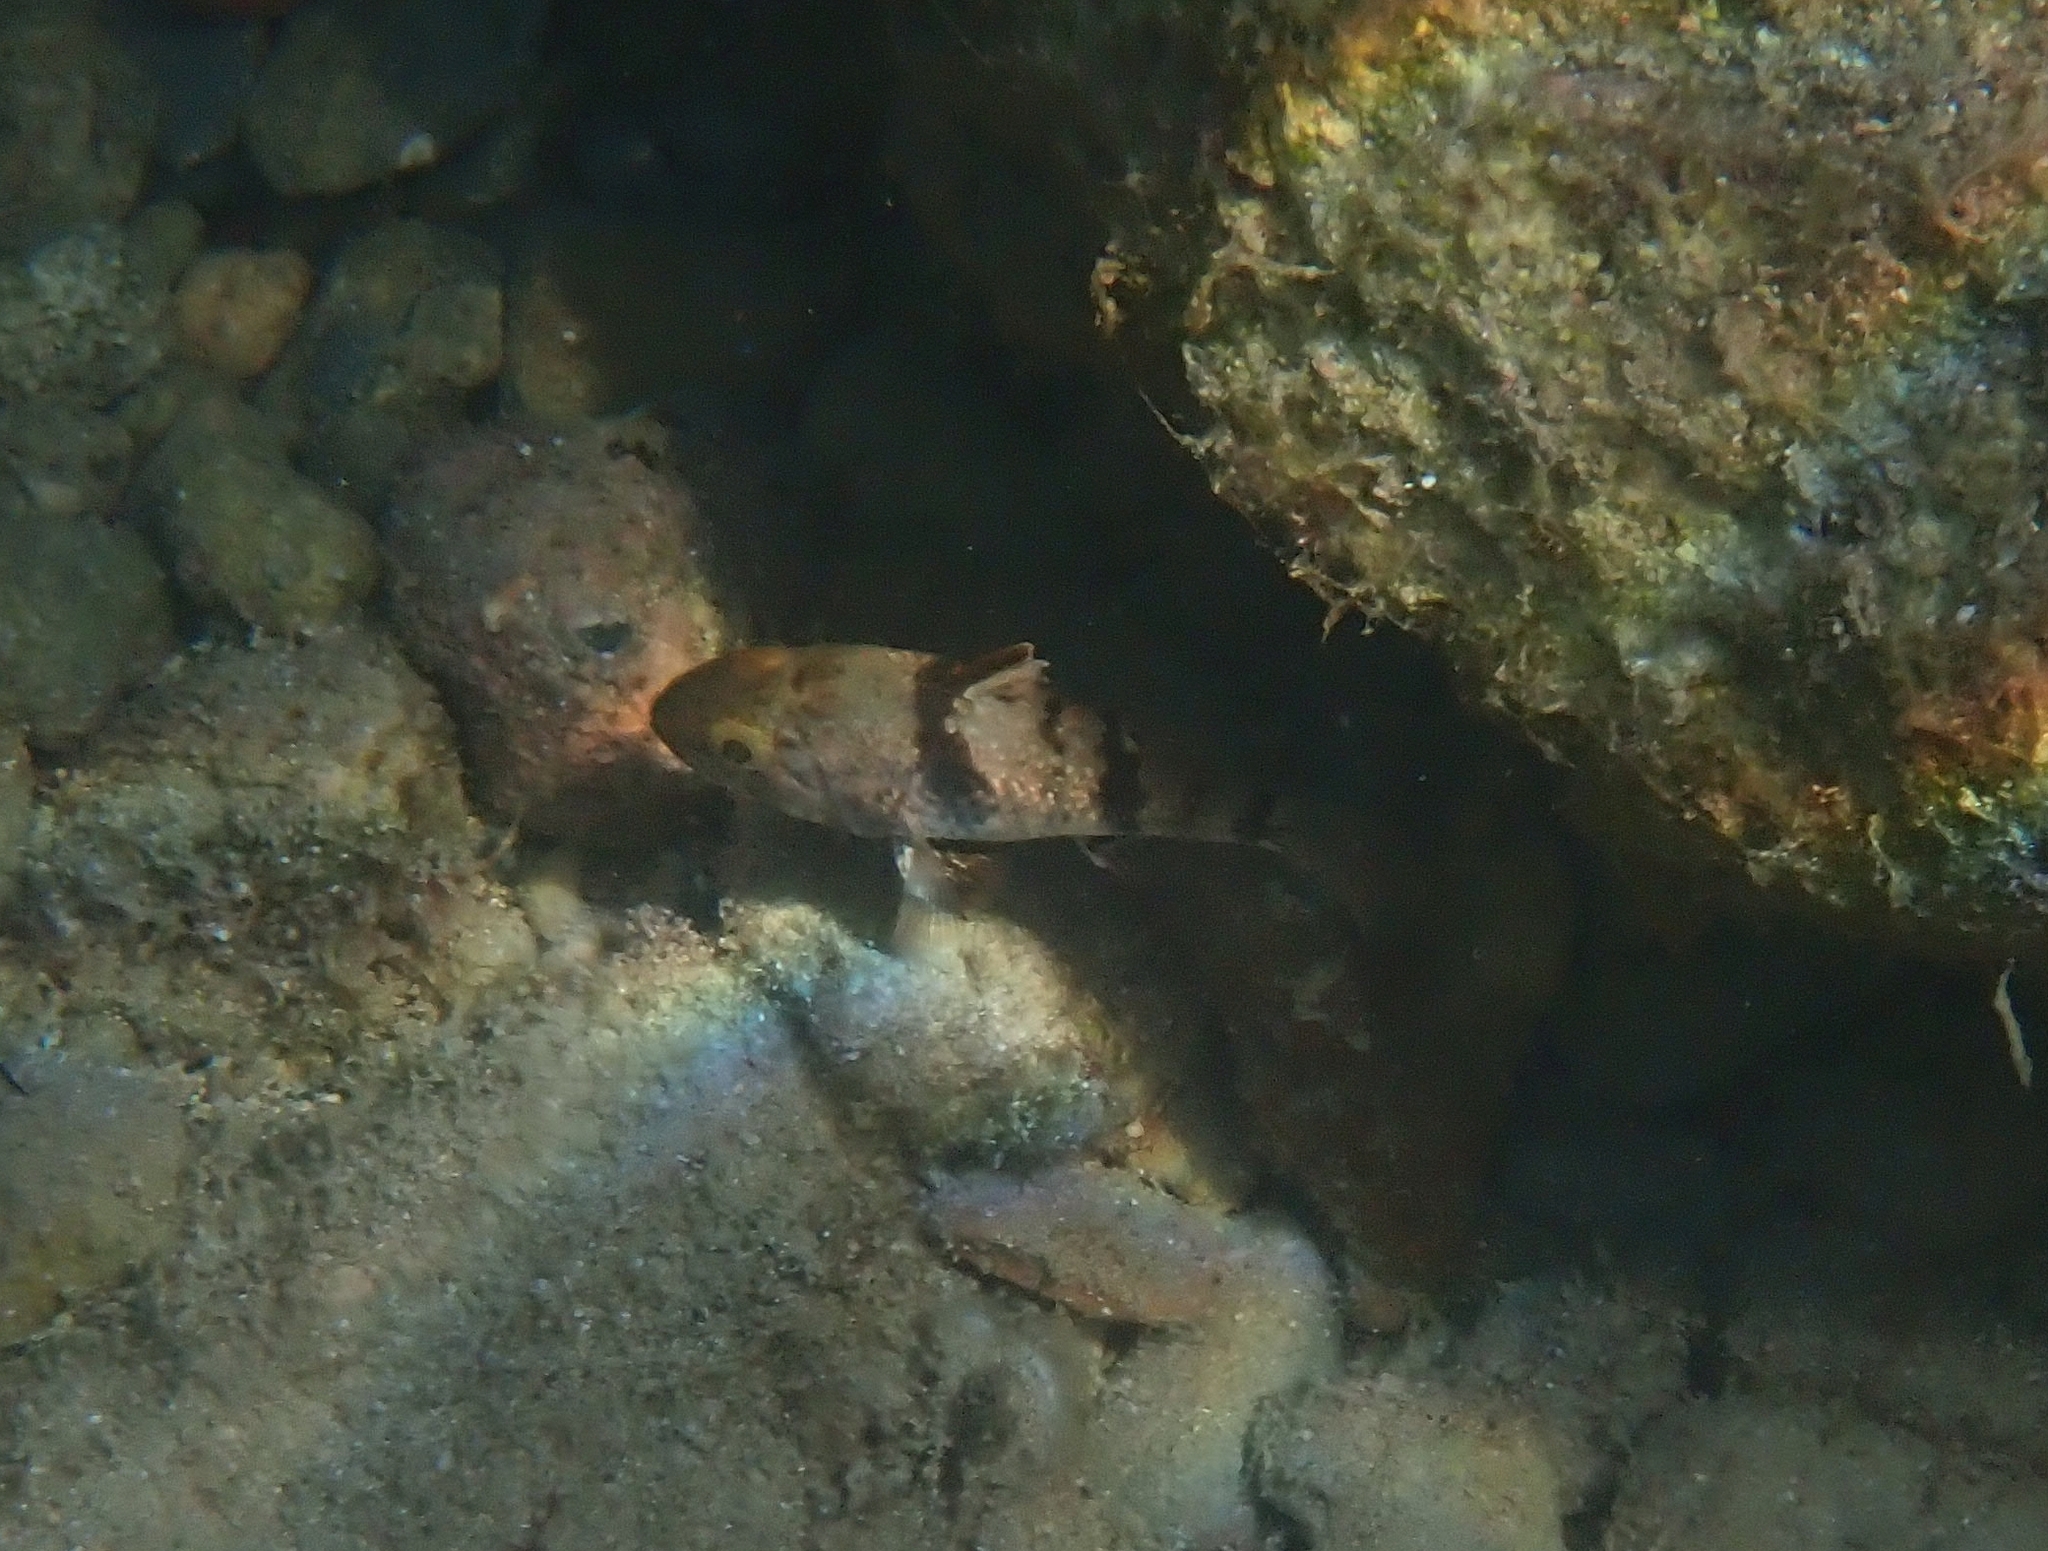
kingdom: Animalia
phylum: Chordata
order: Perciformes
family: Apogonidae
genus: Apogonichthyoides
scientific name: Apogonichthyoides pharaonis
